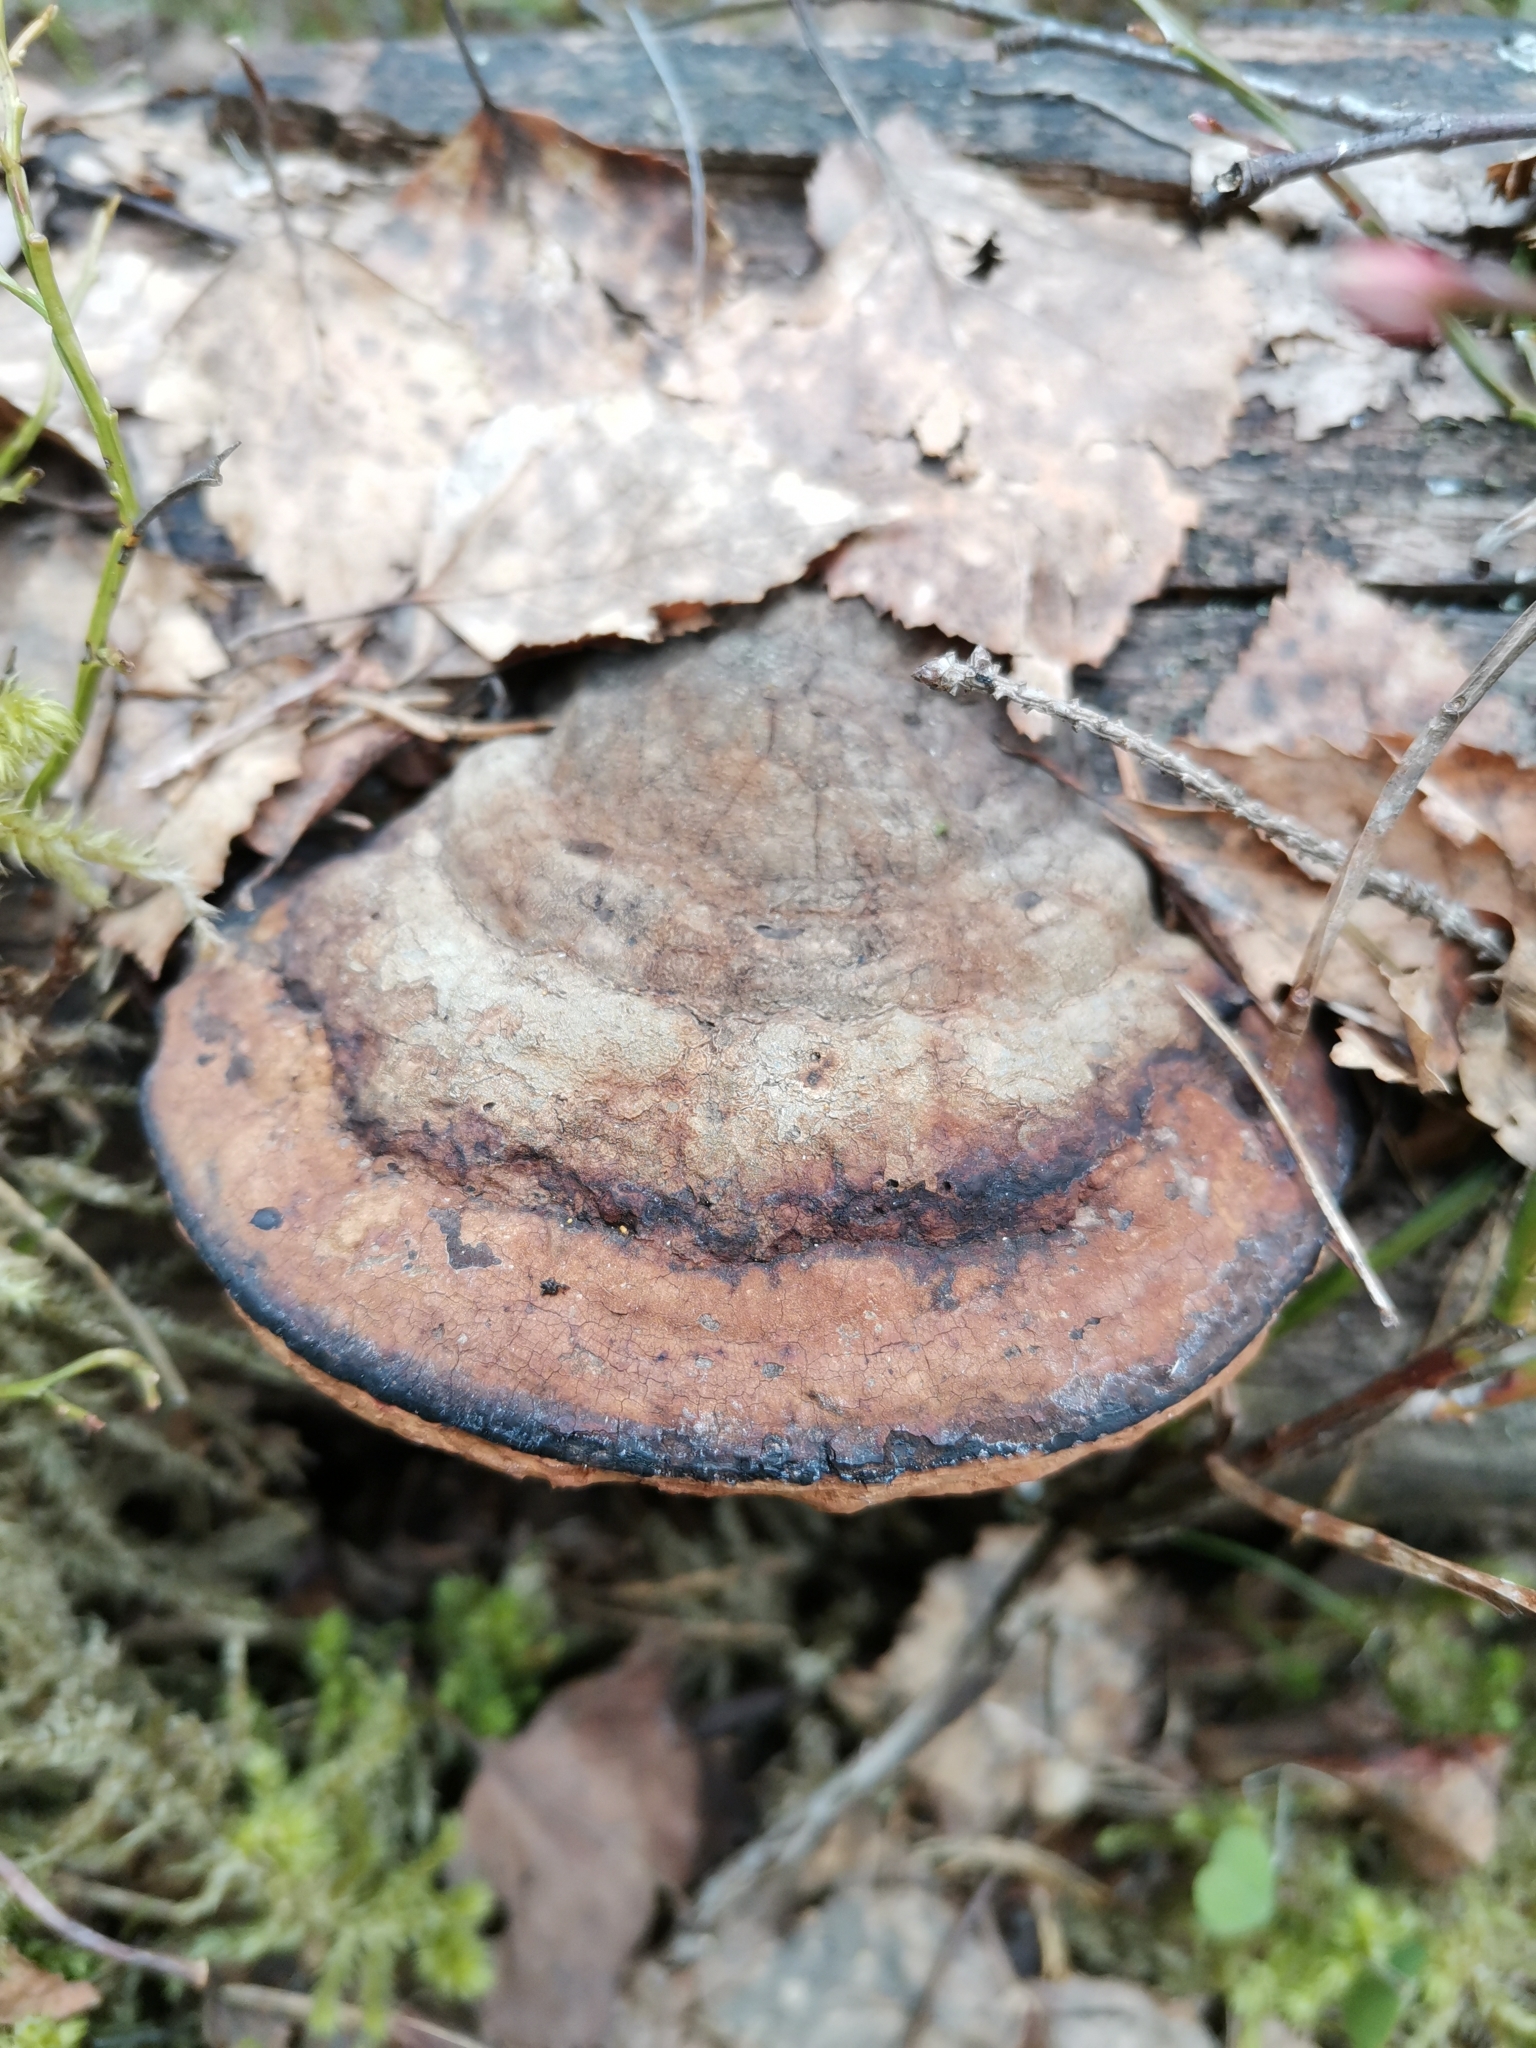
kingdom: Fungi
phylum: Basidiomycota
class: Agaricomycetes
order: Polyporales
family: Fomitopsidaceae
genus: Fomitopsis
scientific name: Fomitopsis pinicola
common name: Red-belted bracket
